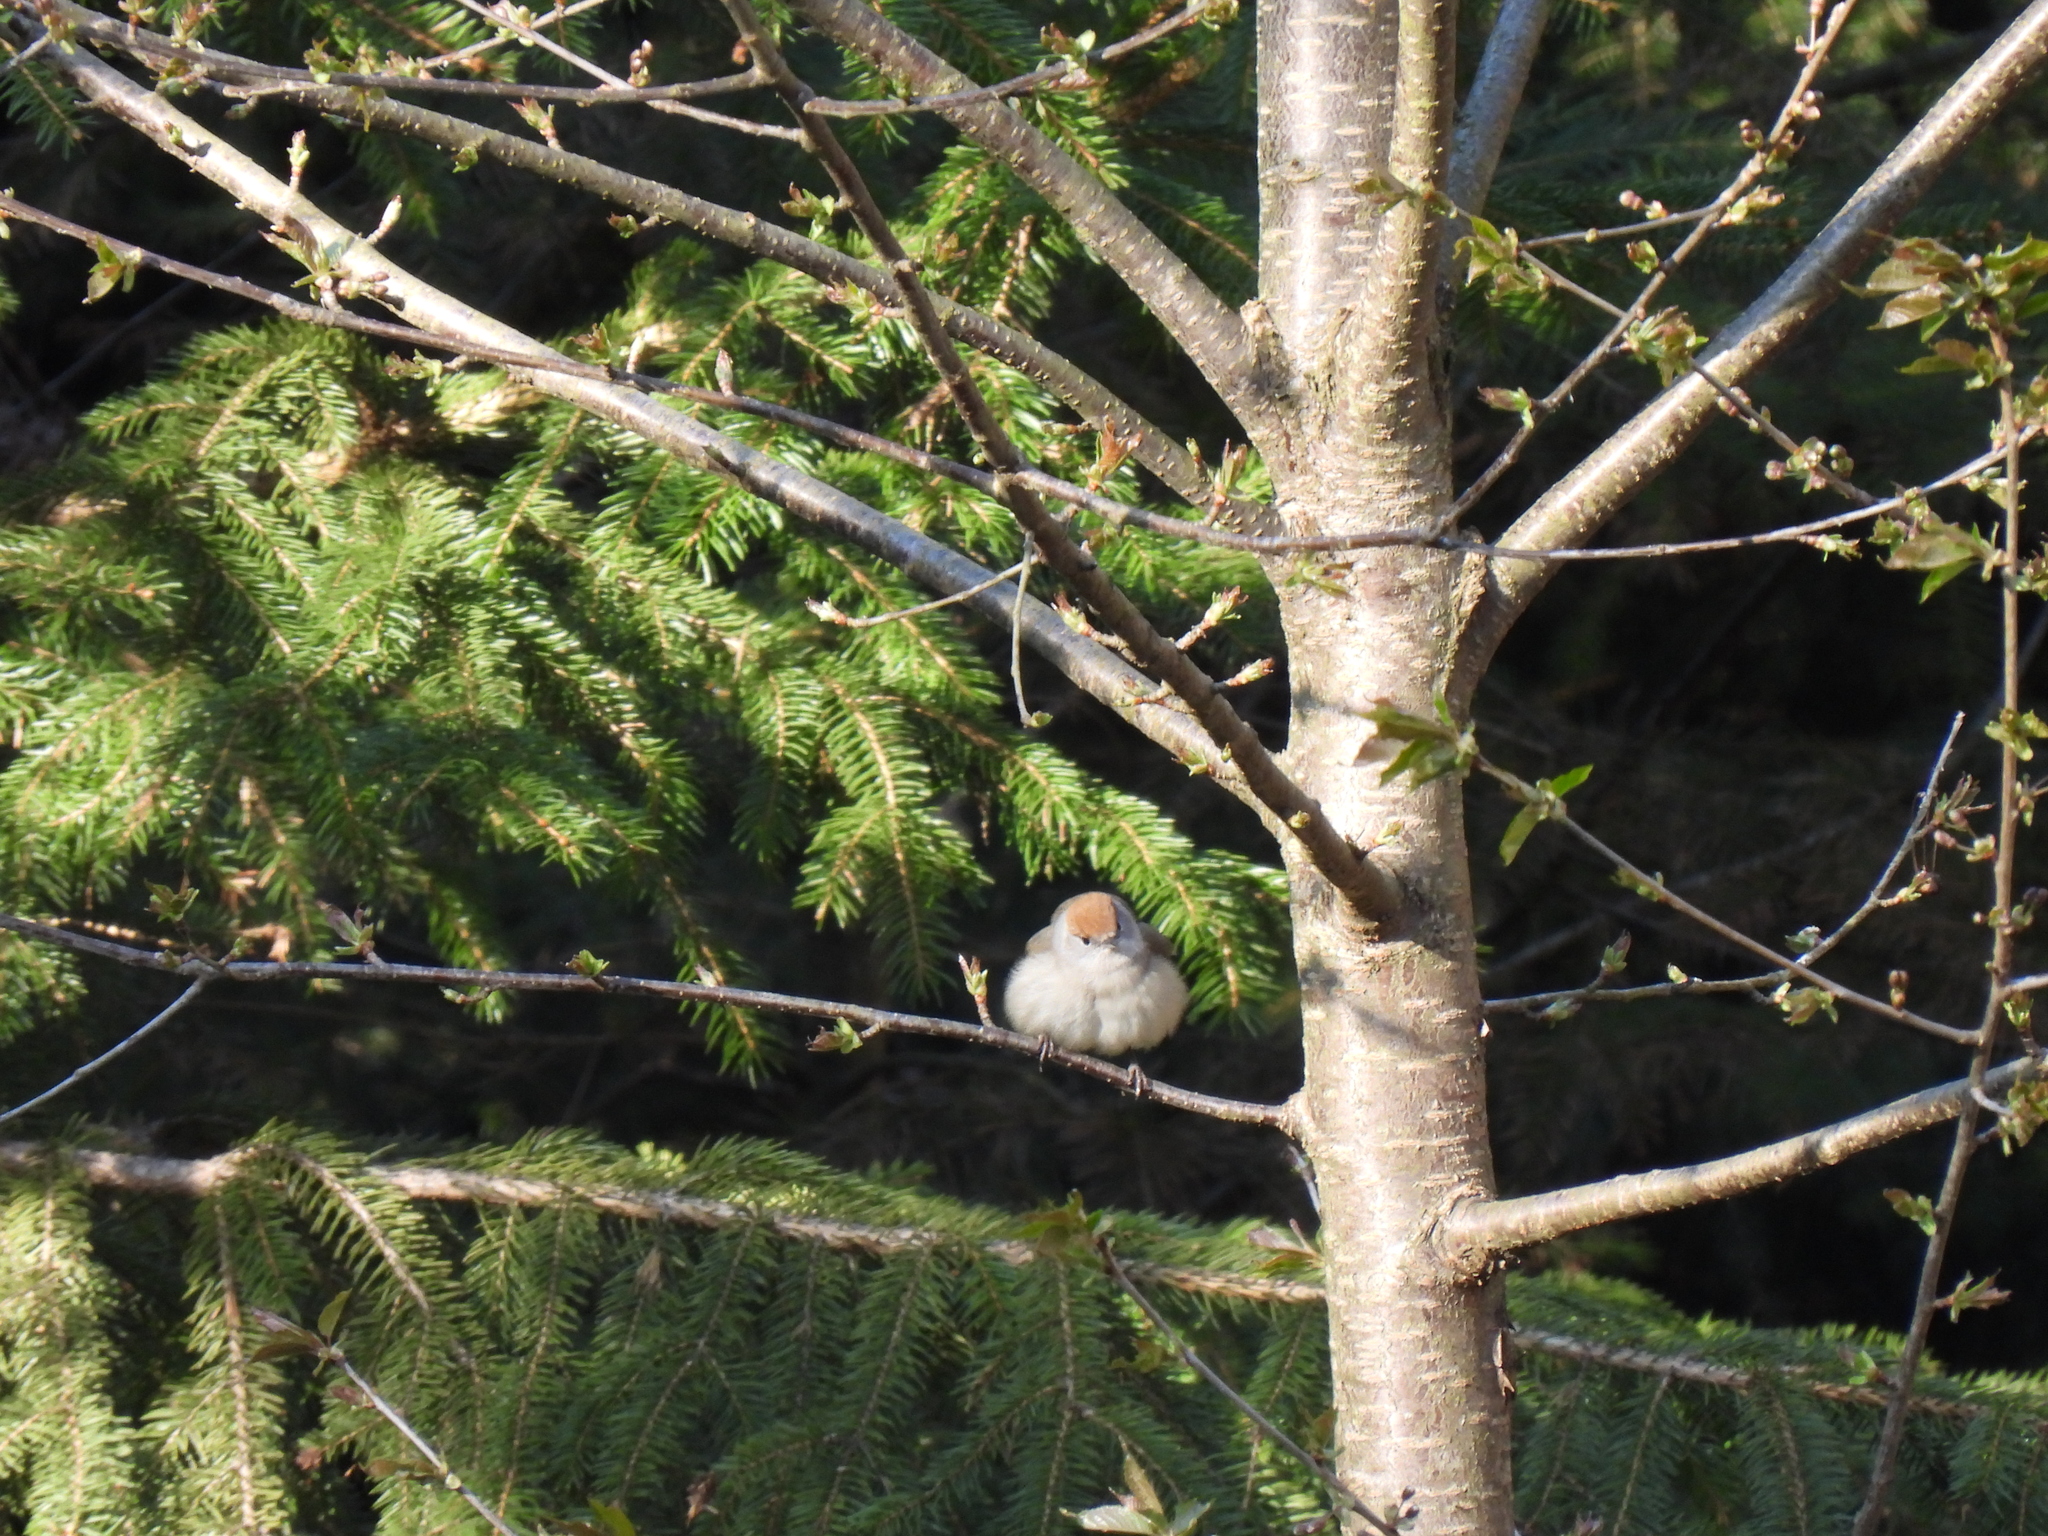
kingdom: Animalia
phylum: Chordata
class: Aves
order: Passeriformes
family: Sylviidae
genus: Sylvia
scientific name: Sylvia atricapilla
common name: Eurasian blackcap
